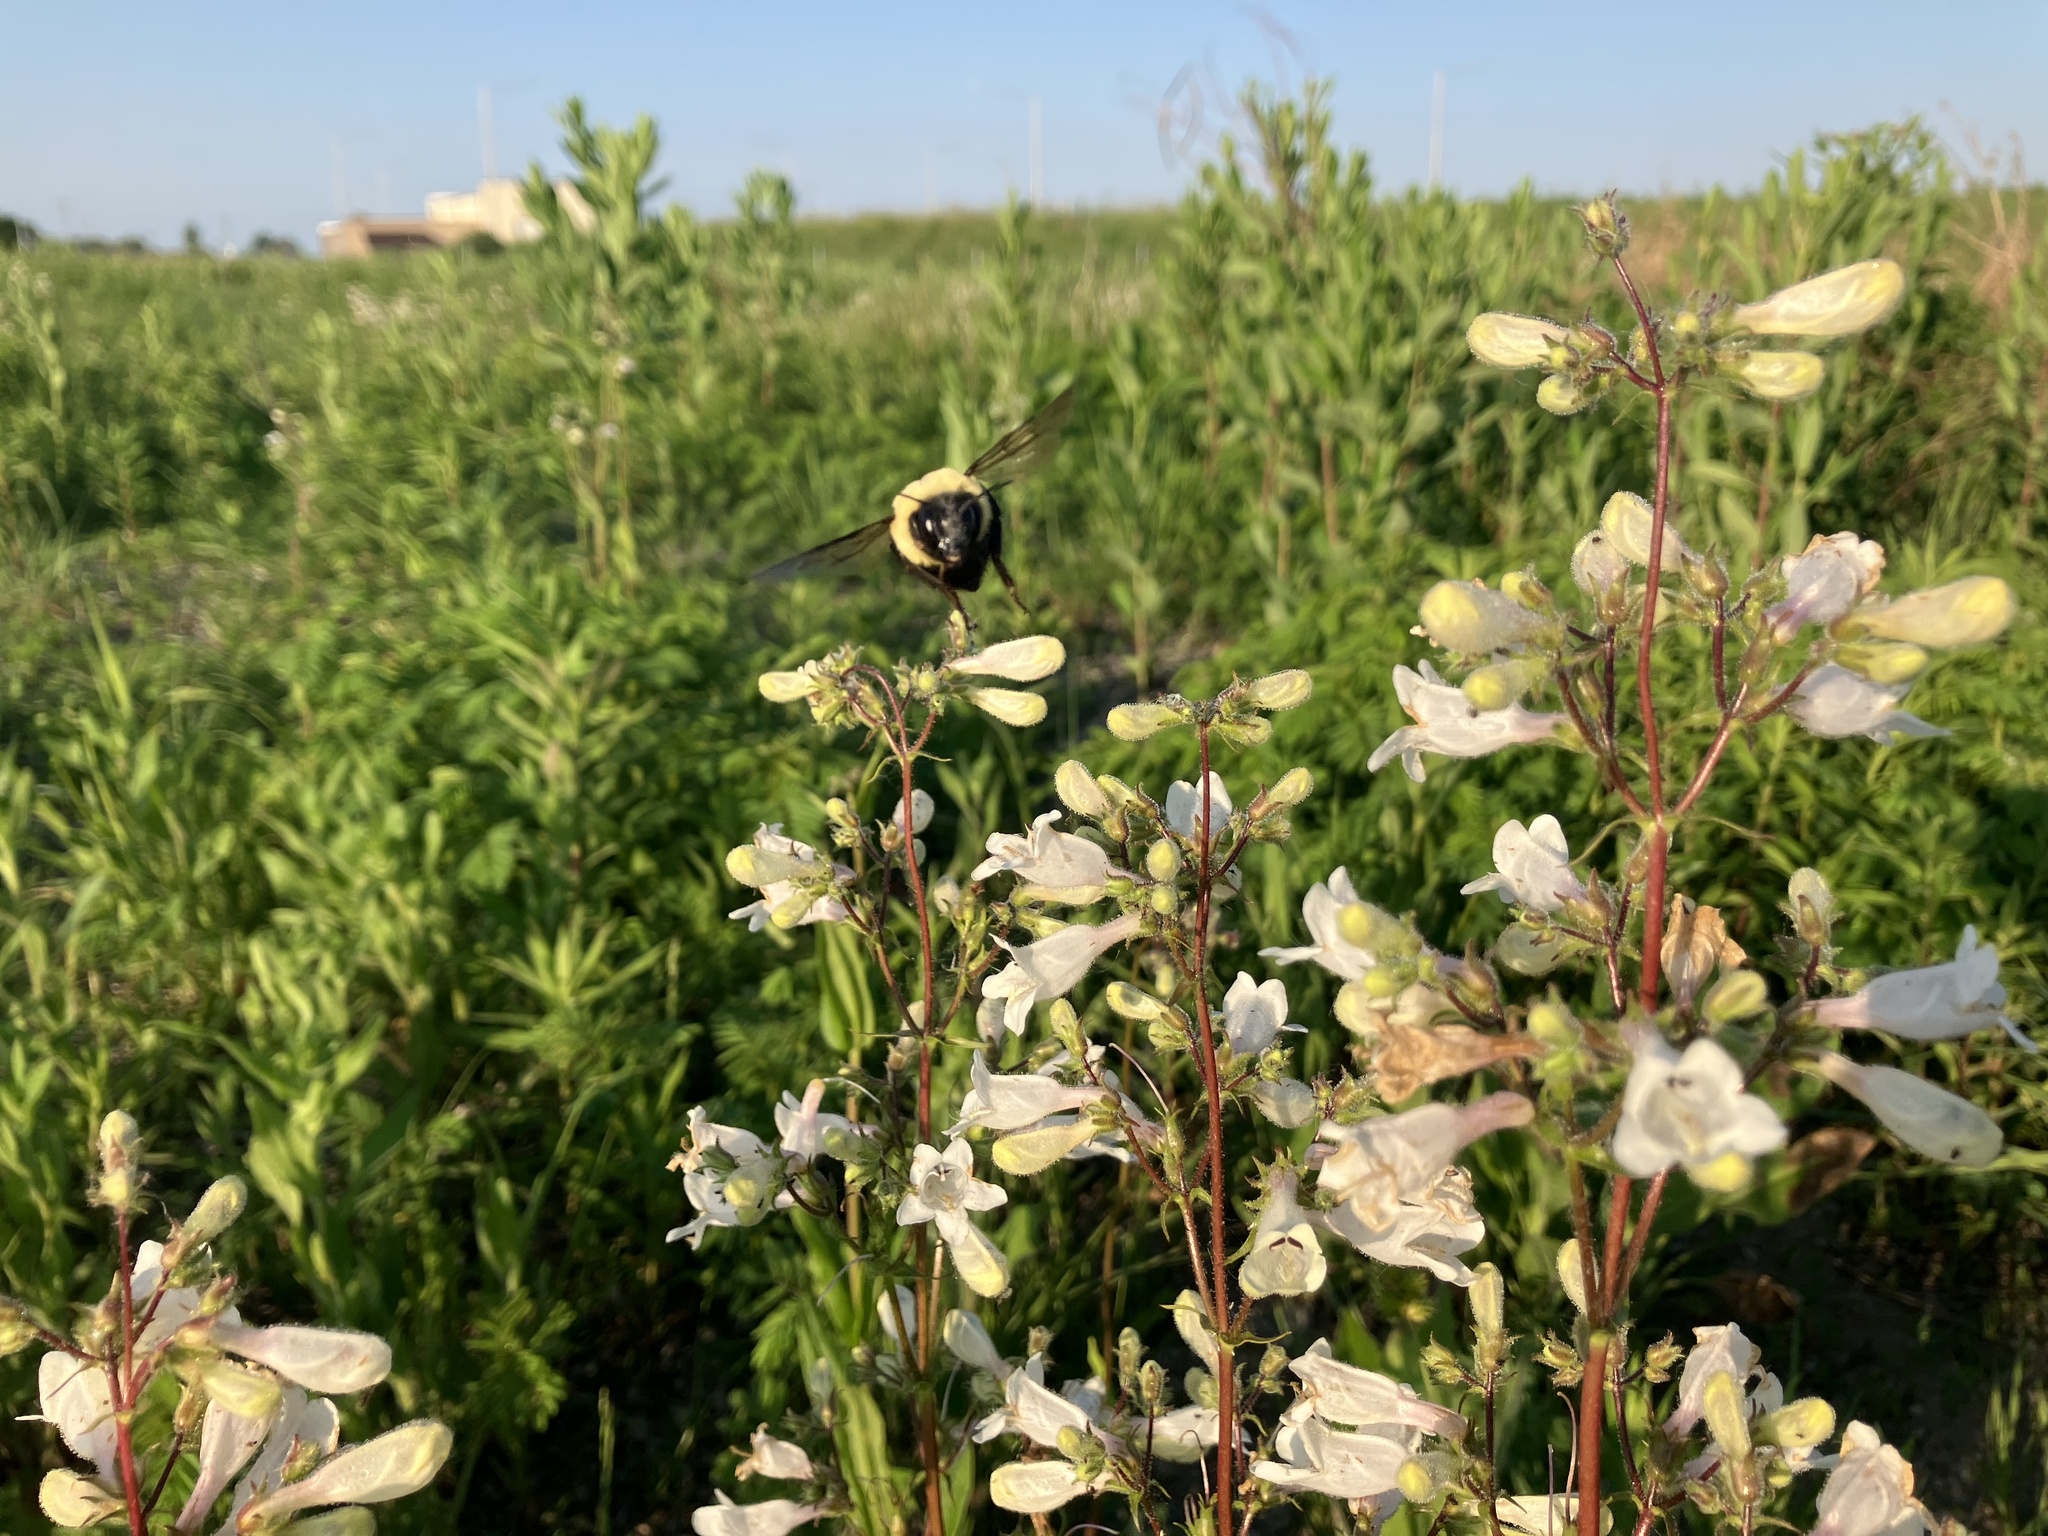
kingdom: Animalia
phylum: Arthropoda
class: Insecta
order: Hymenoptera
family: Apidae
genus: Bombus
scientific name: Bombus impatiens
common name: Common eastern bumble bee
